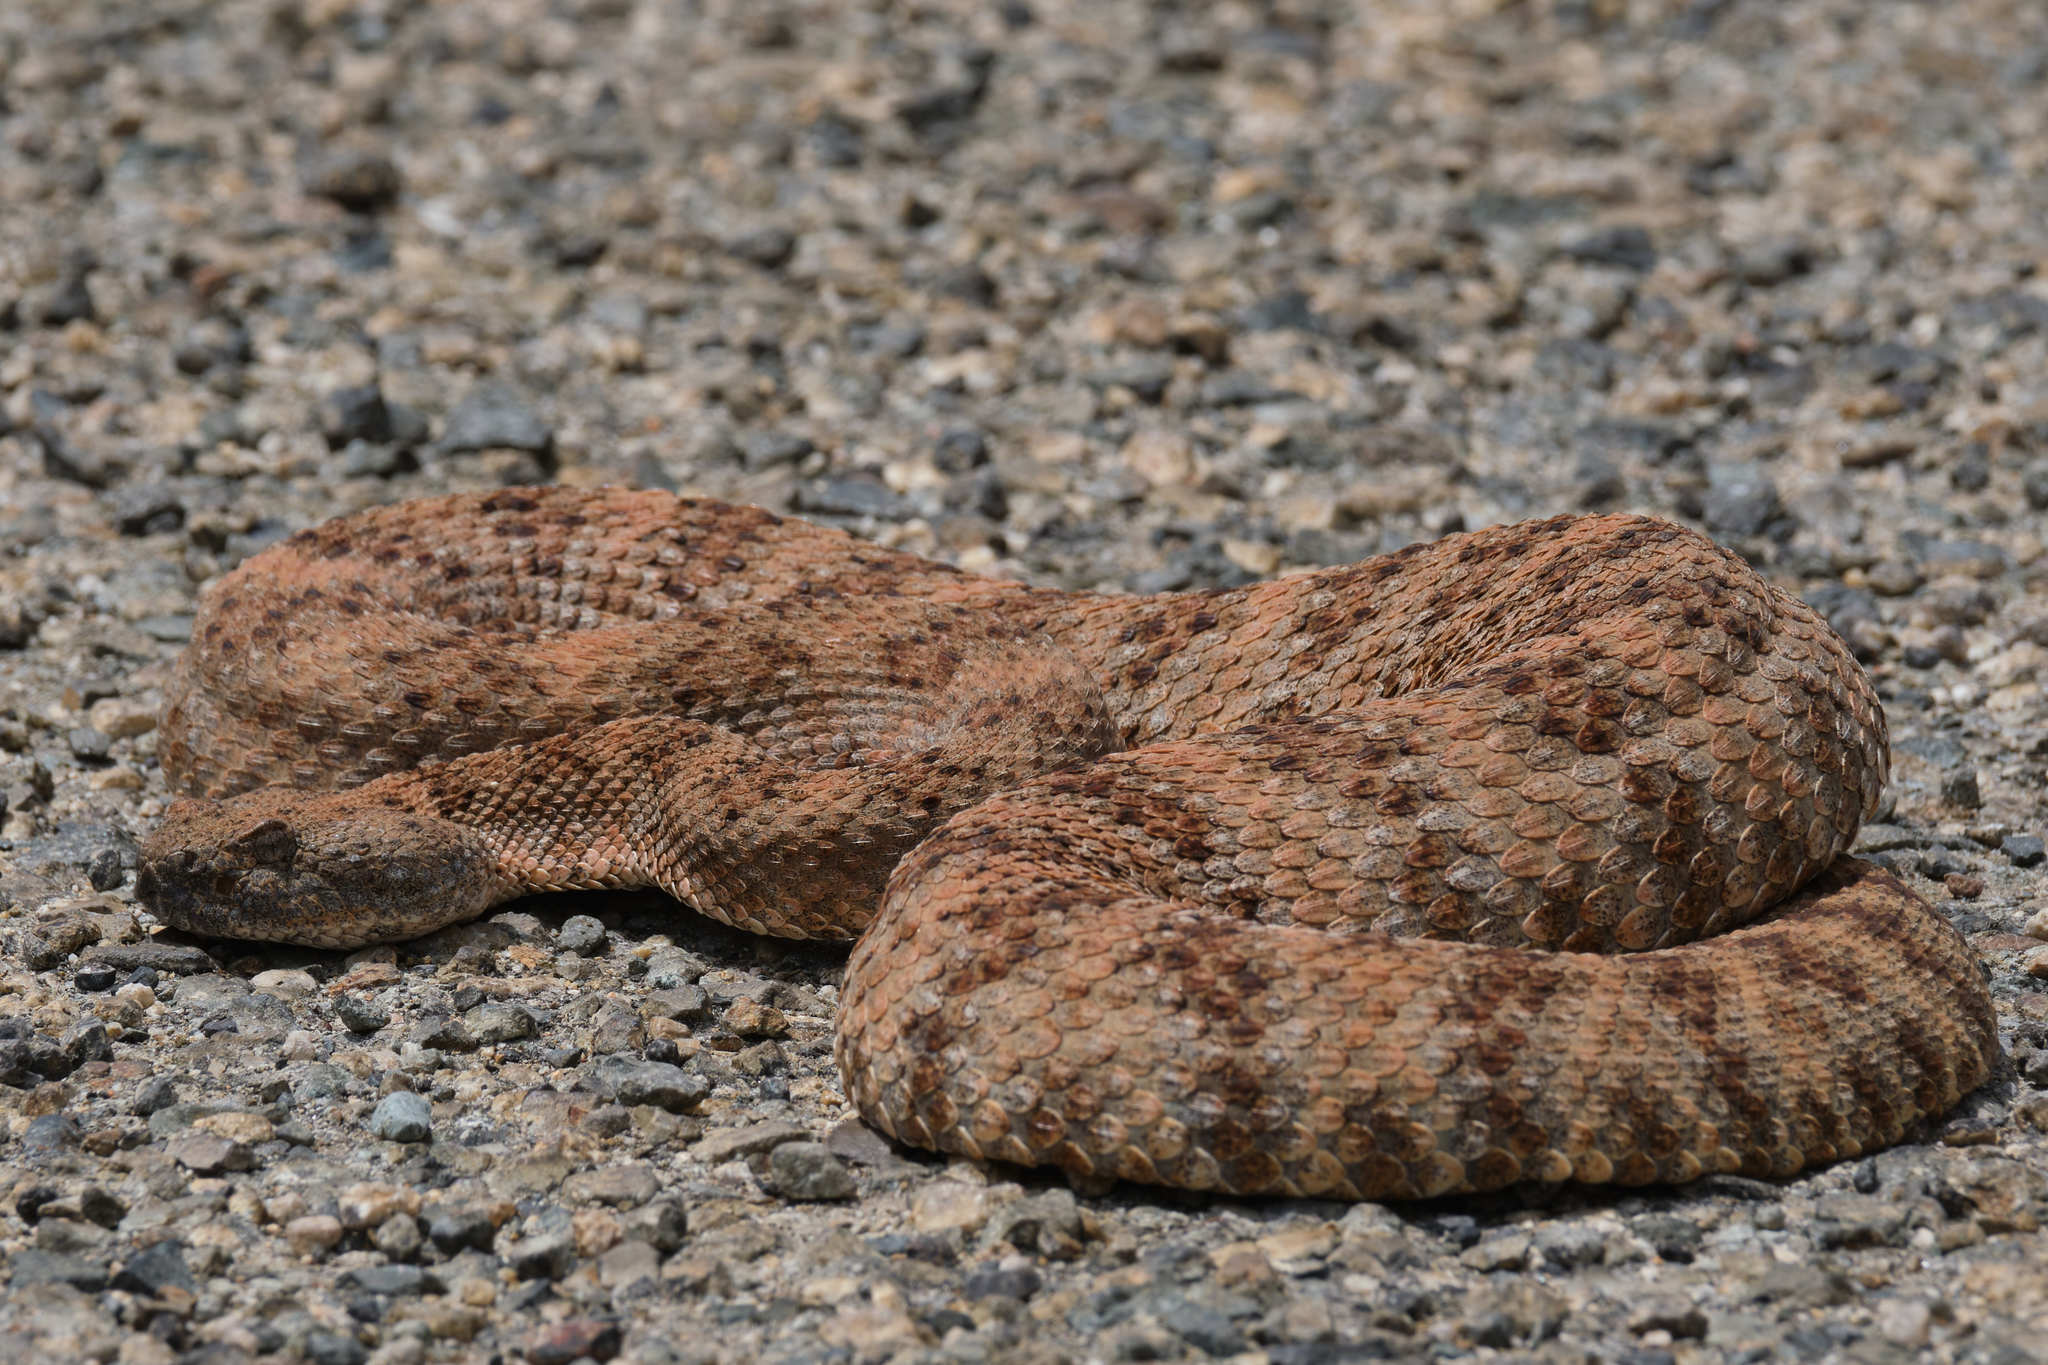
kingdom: Animalia
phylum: Chordata
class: Squamata
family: Viperidae
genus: Crotalus
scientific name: Crotalus pyrrhus
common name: Southwestern speckled rattlesnake
